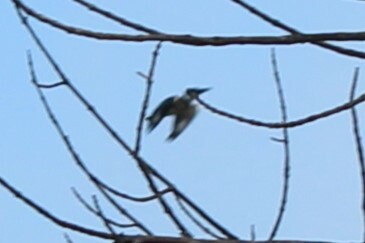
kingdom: Animalia
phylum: Chordata
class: Aves
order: Coraciiformes
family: Alcedinidae
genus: Megaceryle
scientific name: Megaceryle alcyon
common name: Belted kingfisher
